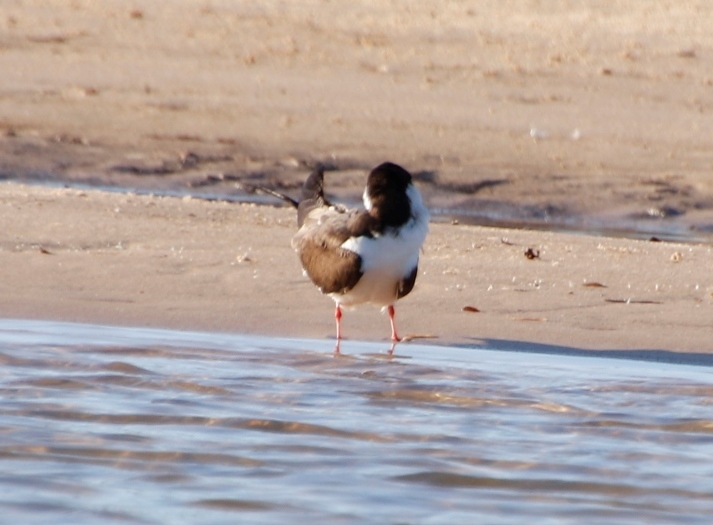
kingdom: Animalia
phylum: Chordata
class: Aves
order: Charadriiformes
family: Laridae
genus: Rynchops
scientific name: Rynchops flavirostris
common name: African skimmer
